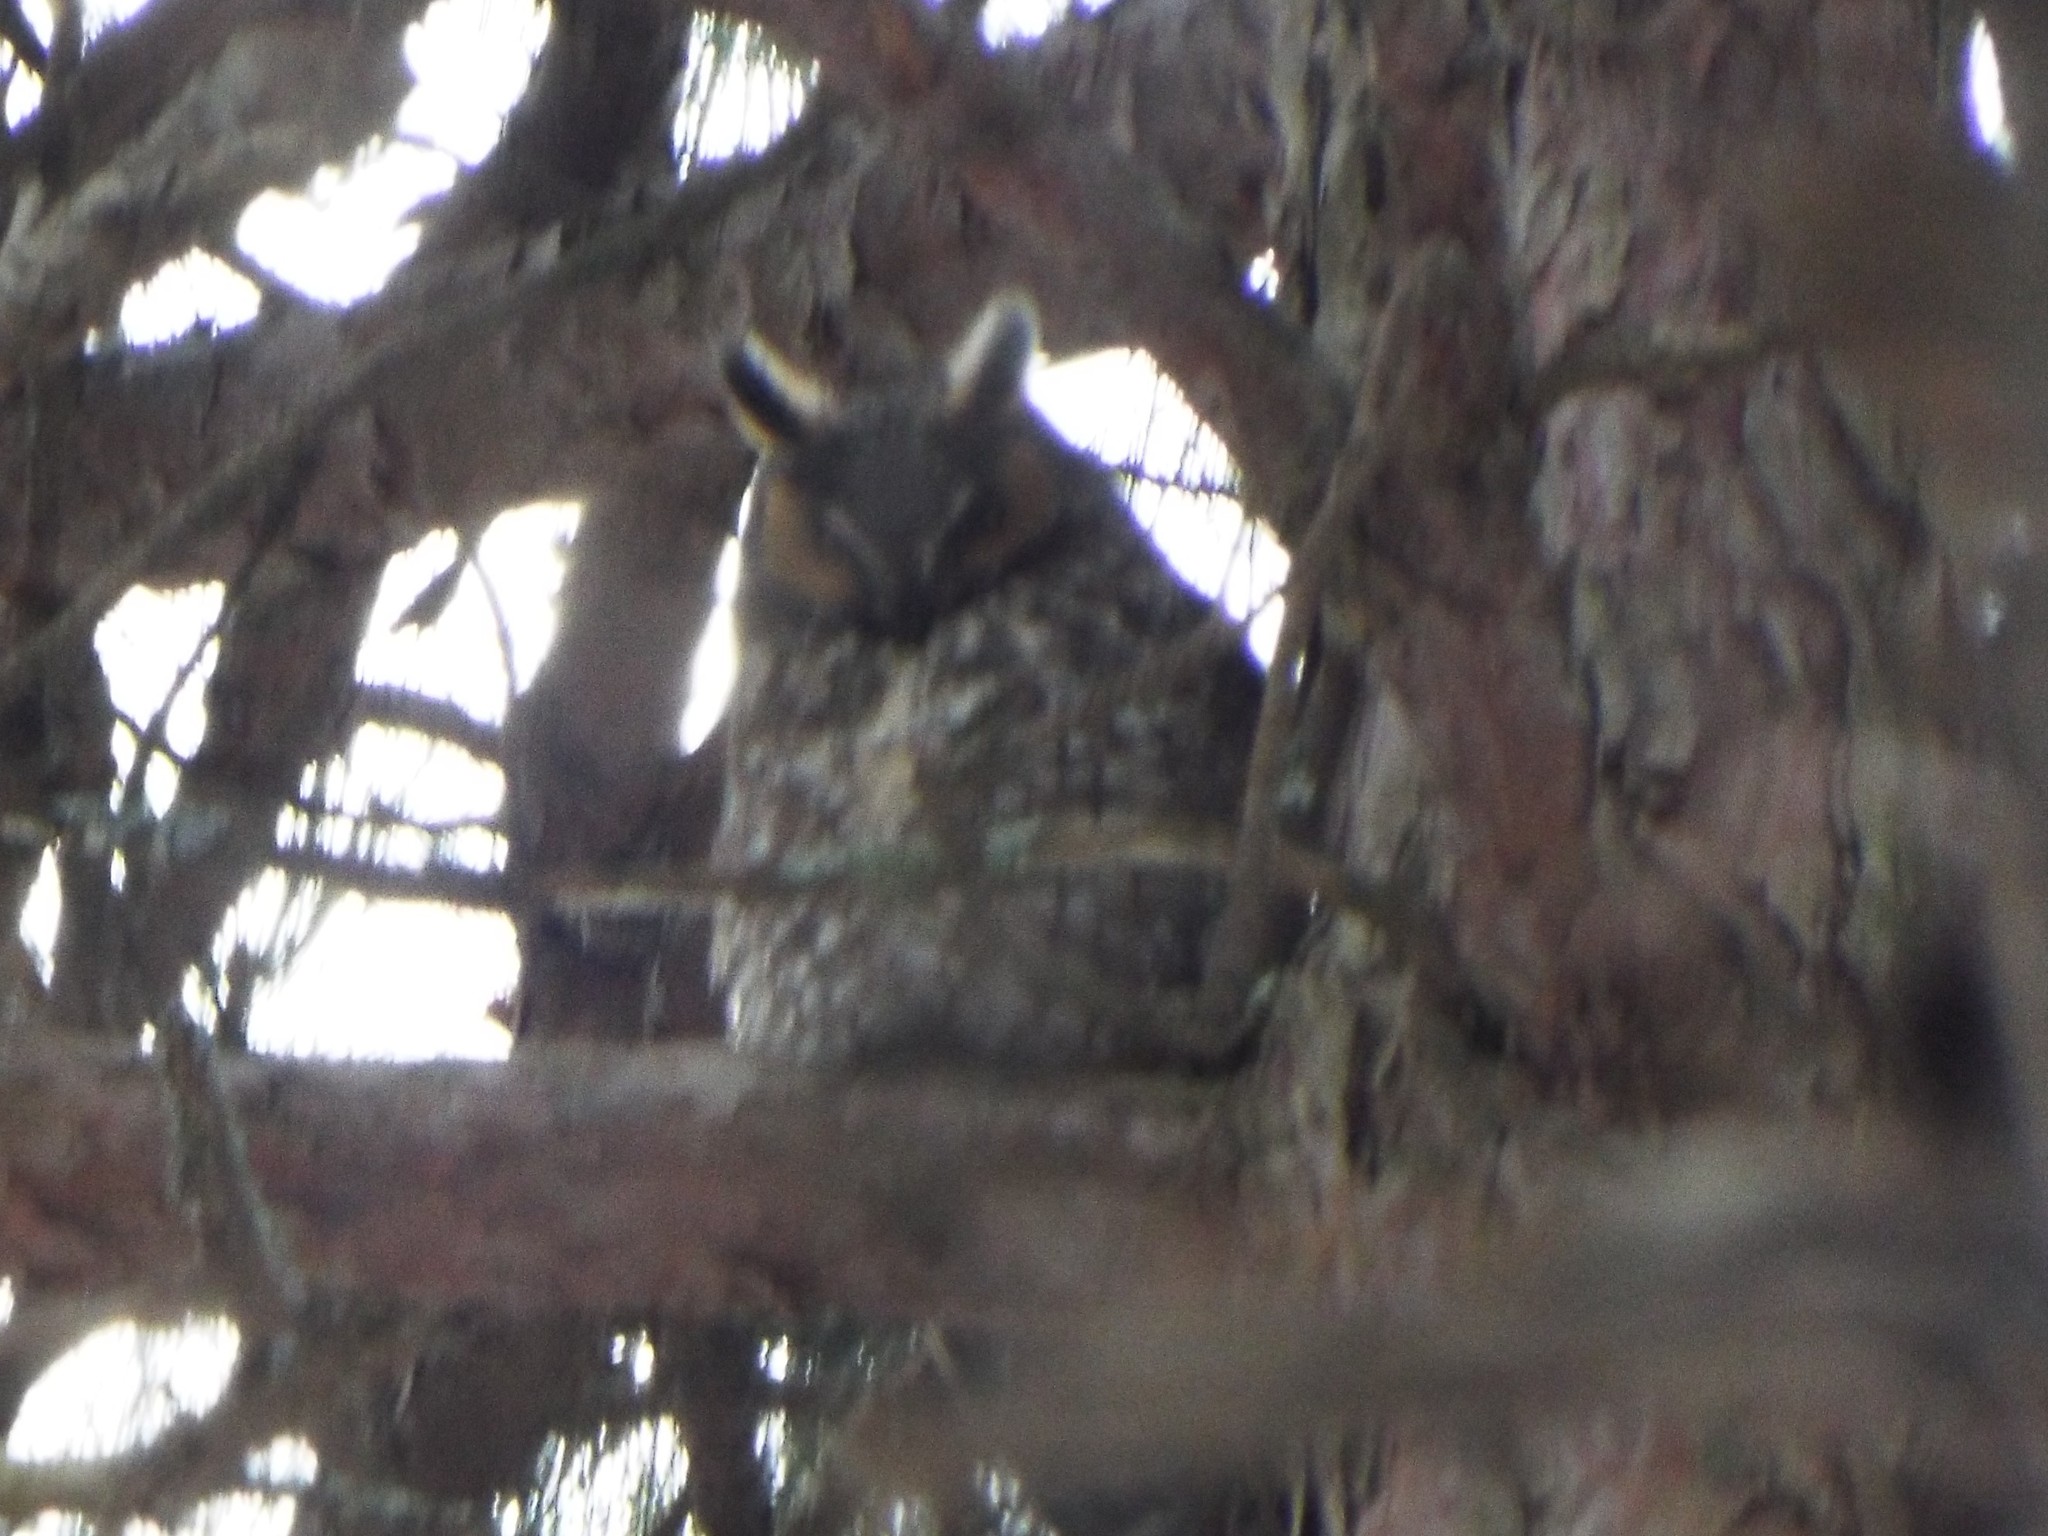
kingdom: Animalia
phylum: Chordata
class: Aves
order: Strigiformes
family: Strigidae
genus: Asio
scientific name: Asio otus
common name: Long-eared owl
